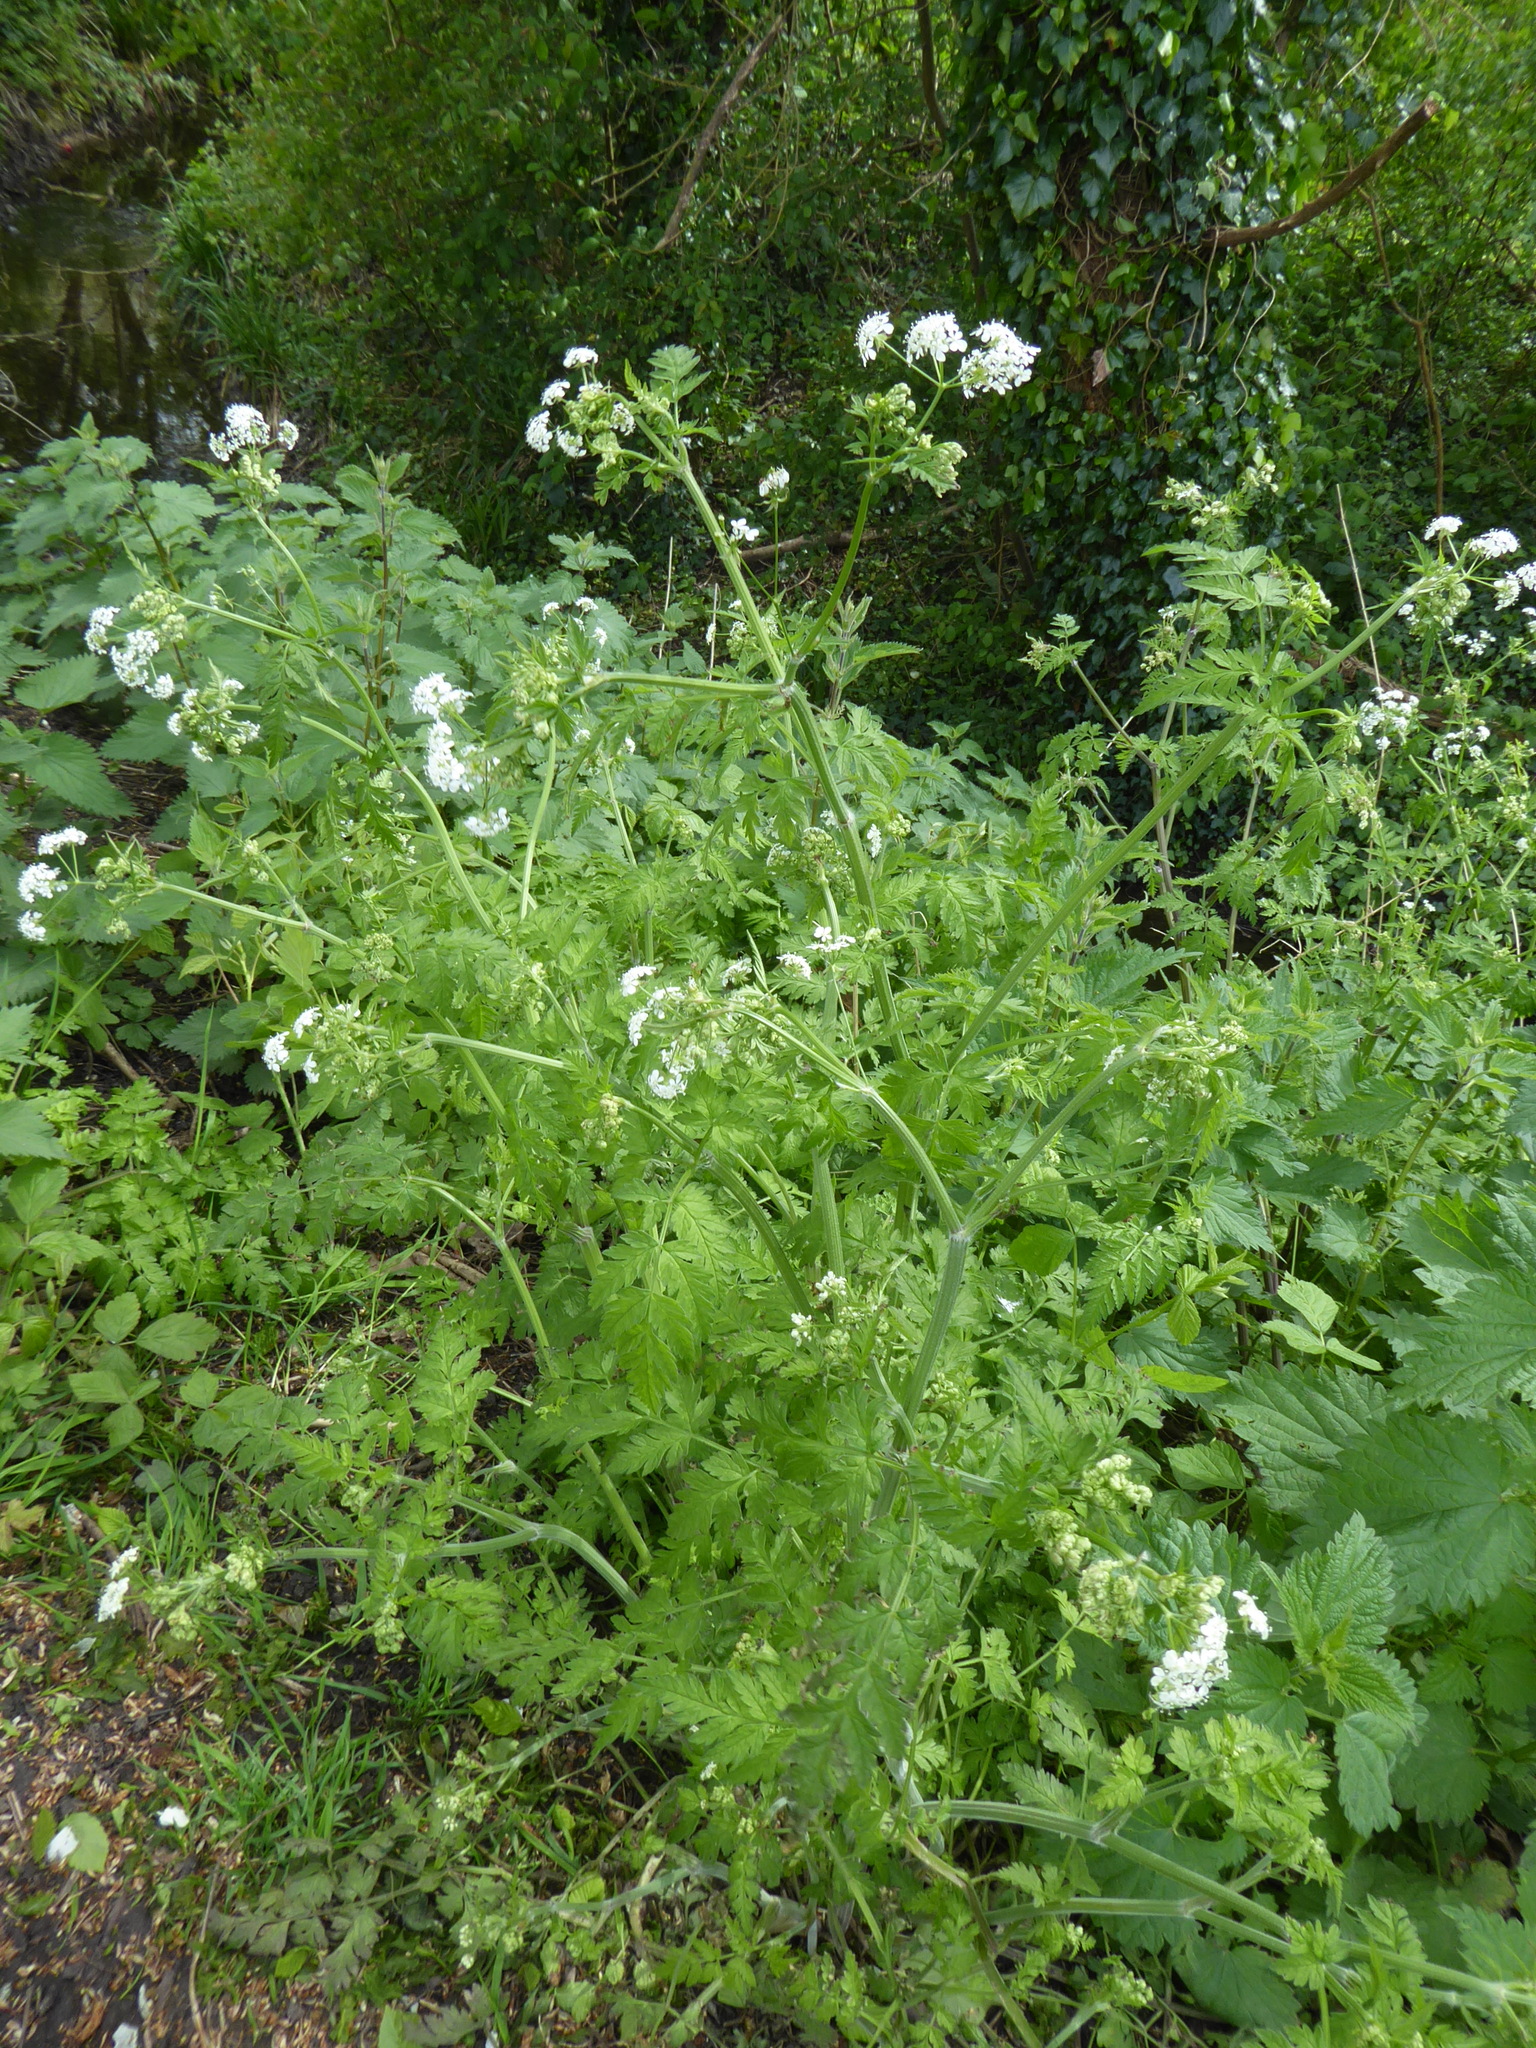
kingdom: Plantae
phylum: Tracheophyta
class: Magnoliopsida
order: Apiales
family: Apiaceae
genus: Anthriscus
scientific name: Anthriscus sylvestris
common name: Cow parsley
